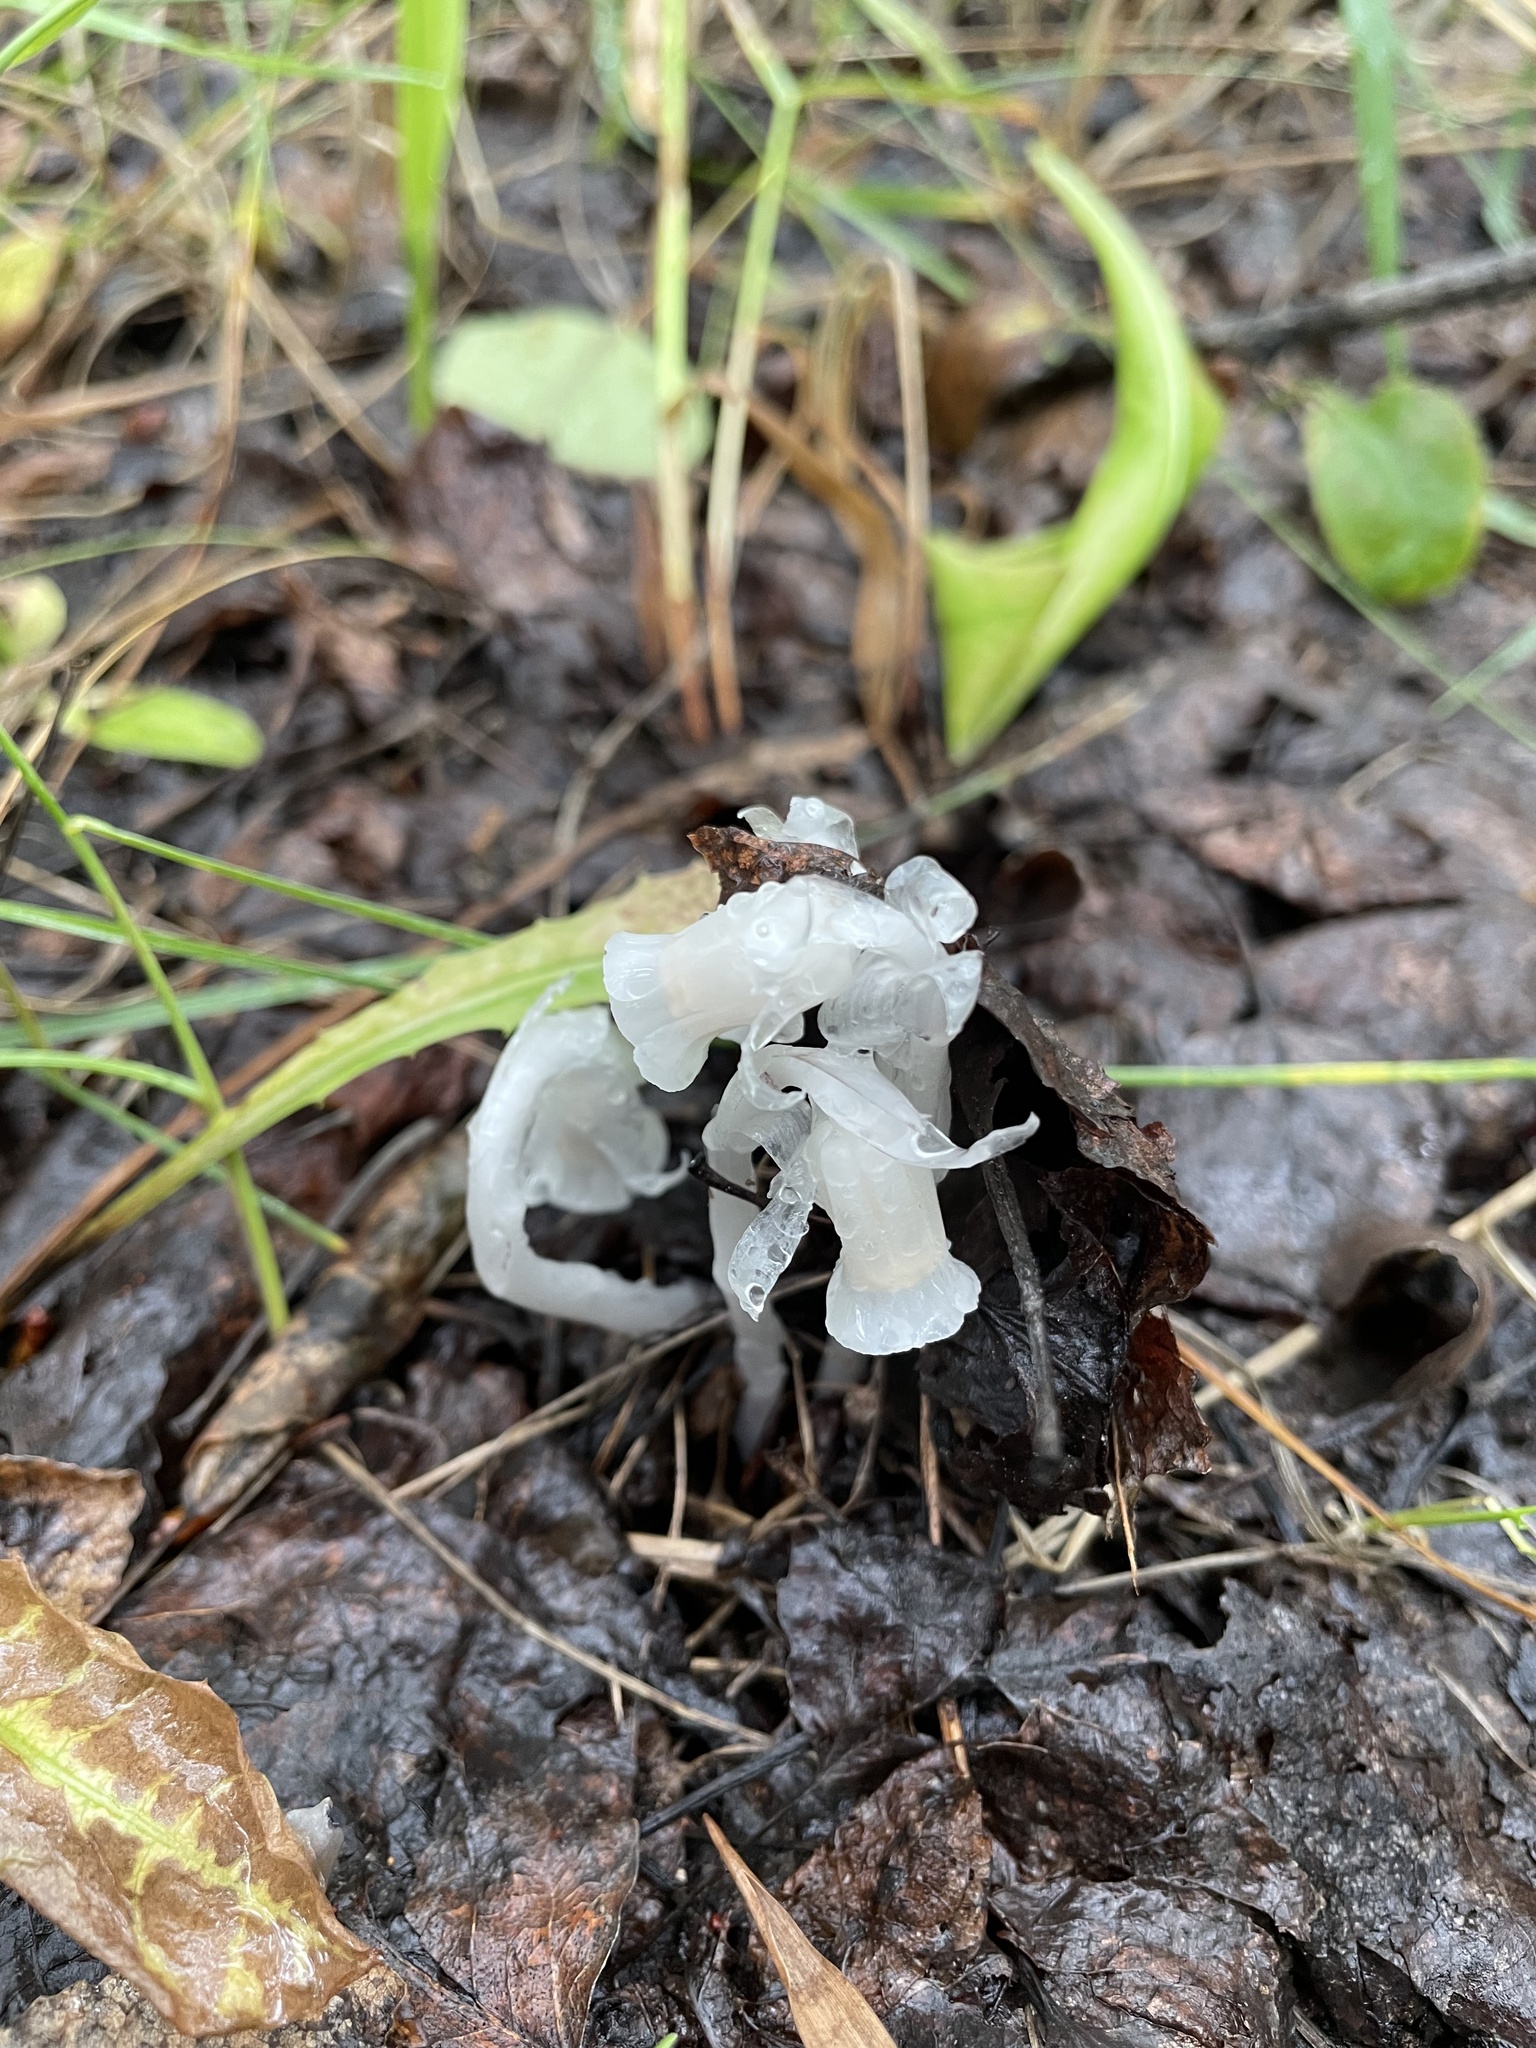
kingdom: Plantae
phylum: Tracheophyta
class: Magnoliopsida
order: Ericales
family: Ericaceae
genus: Monotropa
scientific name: Monotropa uniflora
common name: Convulsion root
